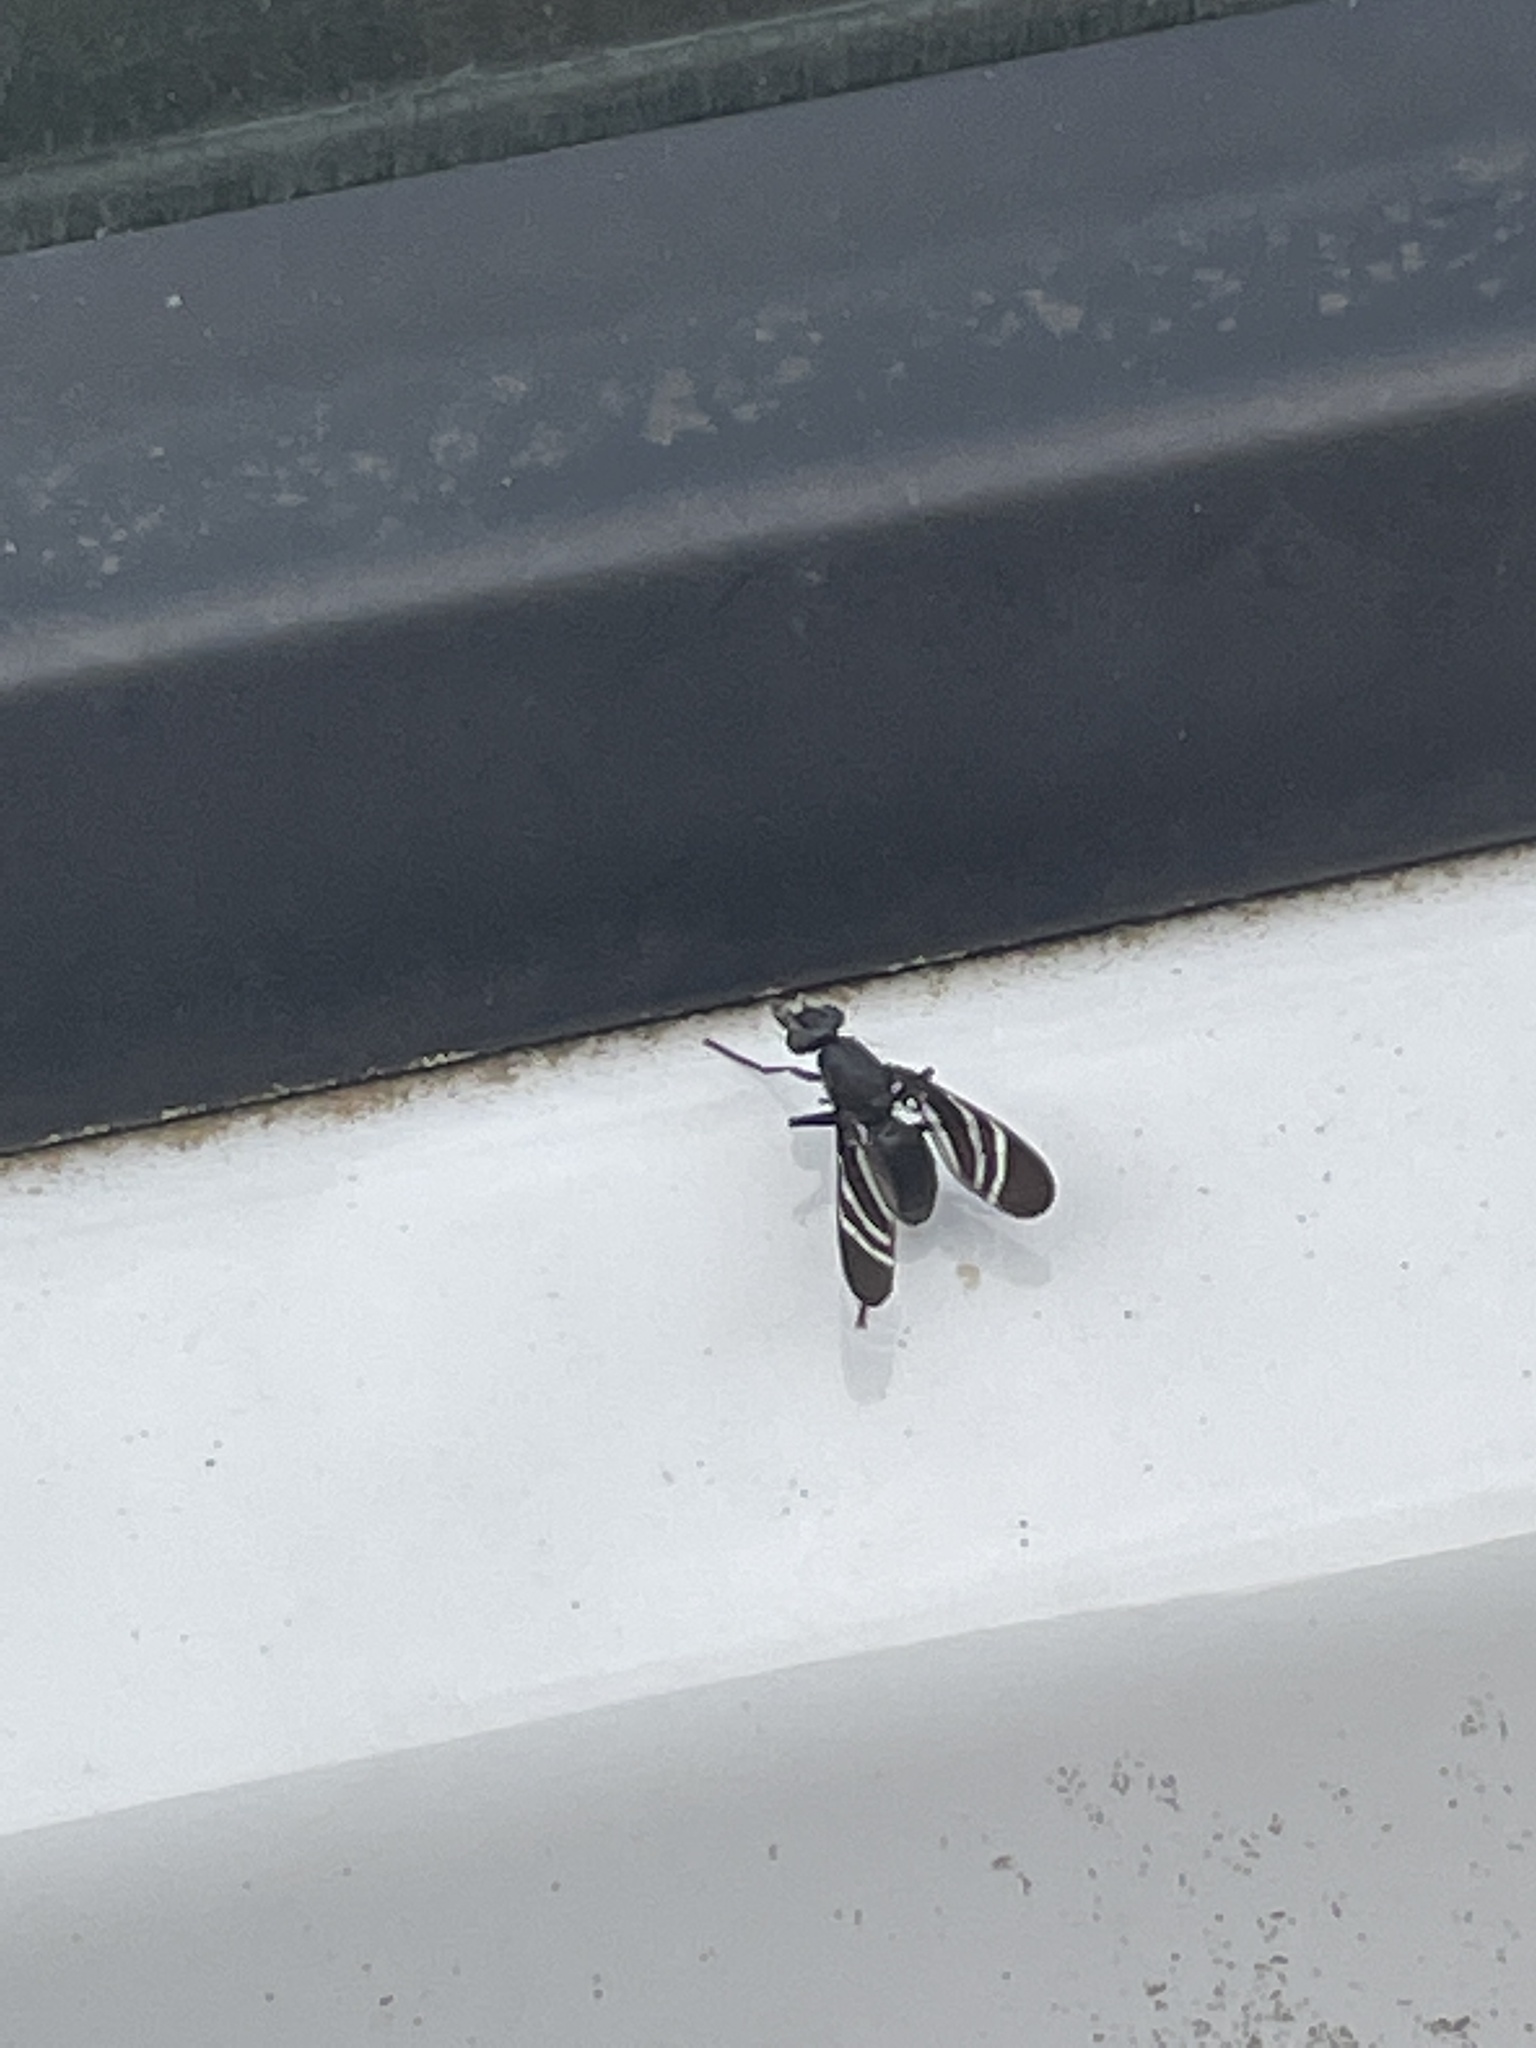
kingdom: Animalia
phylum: Arthropoda
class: Insecta
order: Diptera
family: Ulidiidae
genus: Tritoxa
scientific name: Tritoxa flexa
